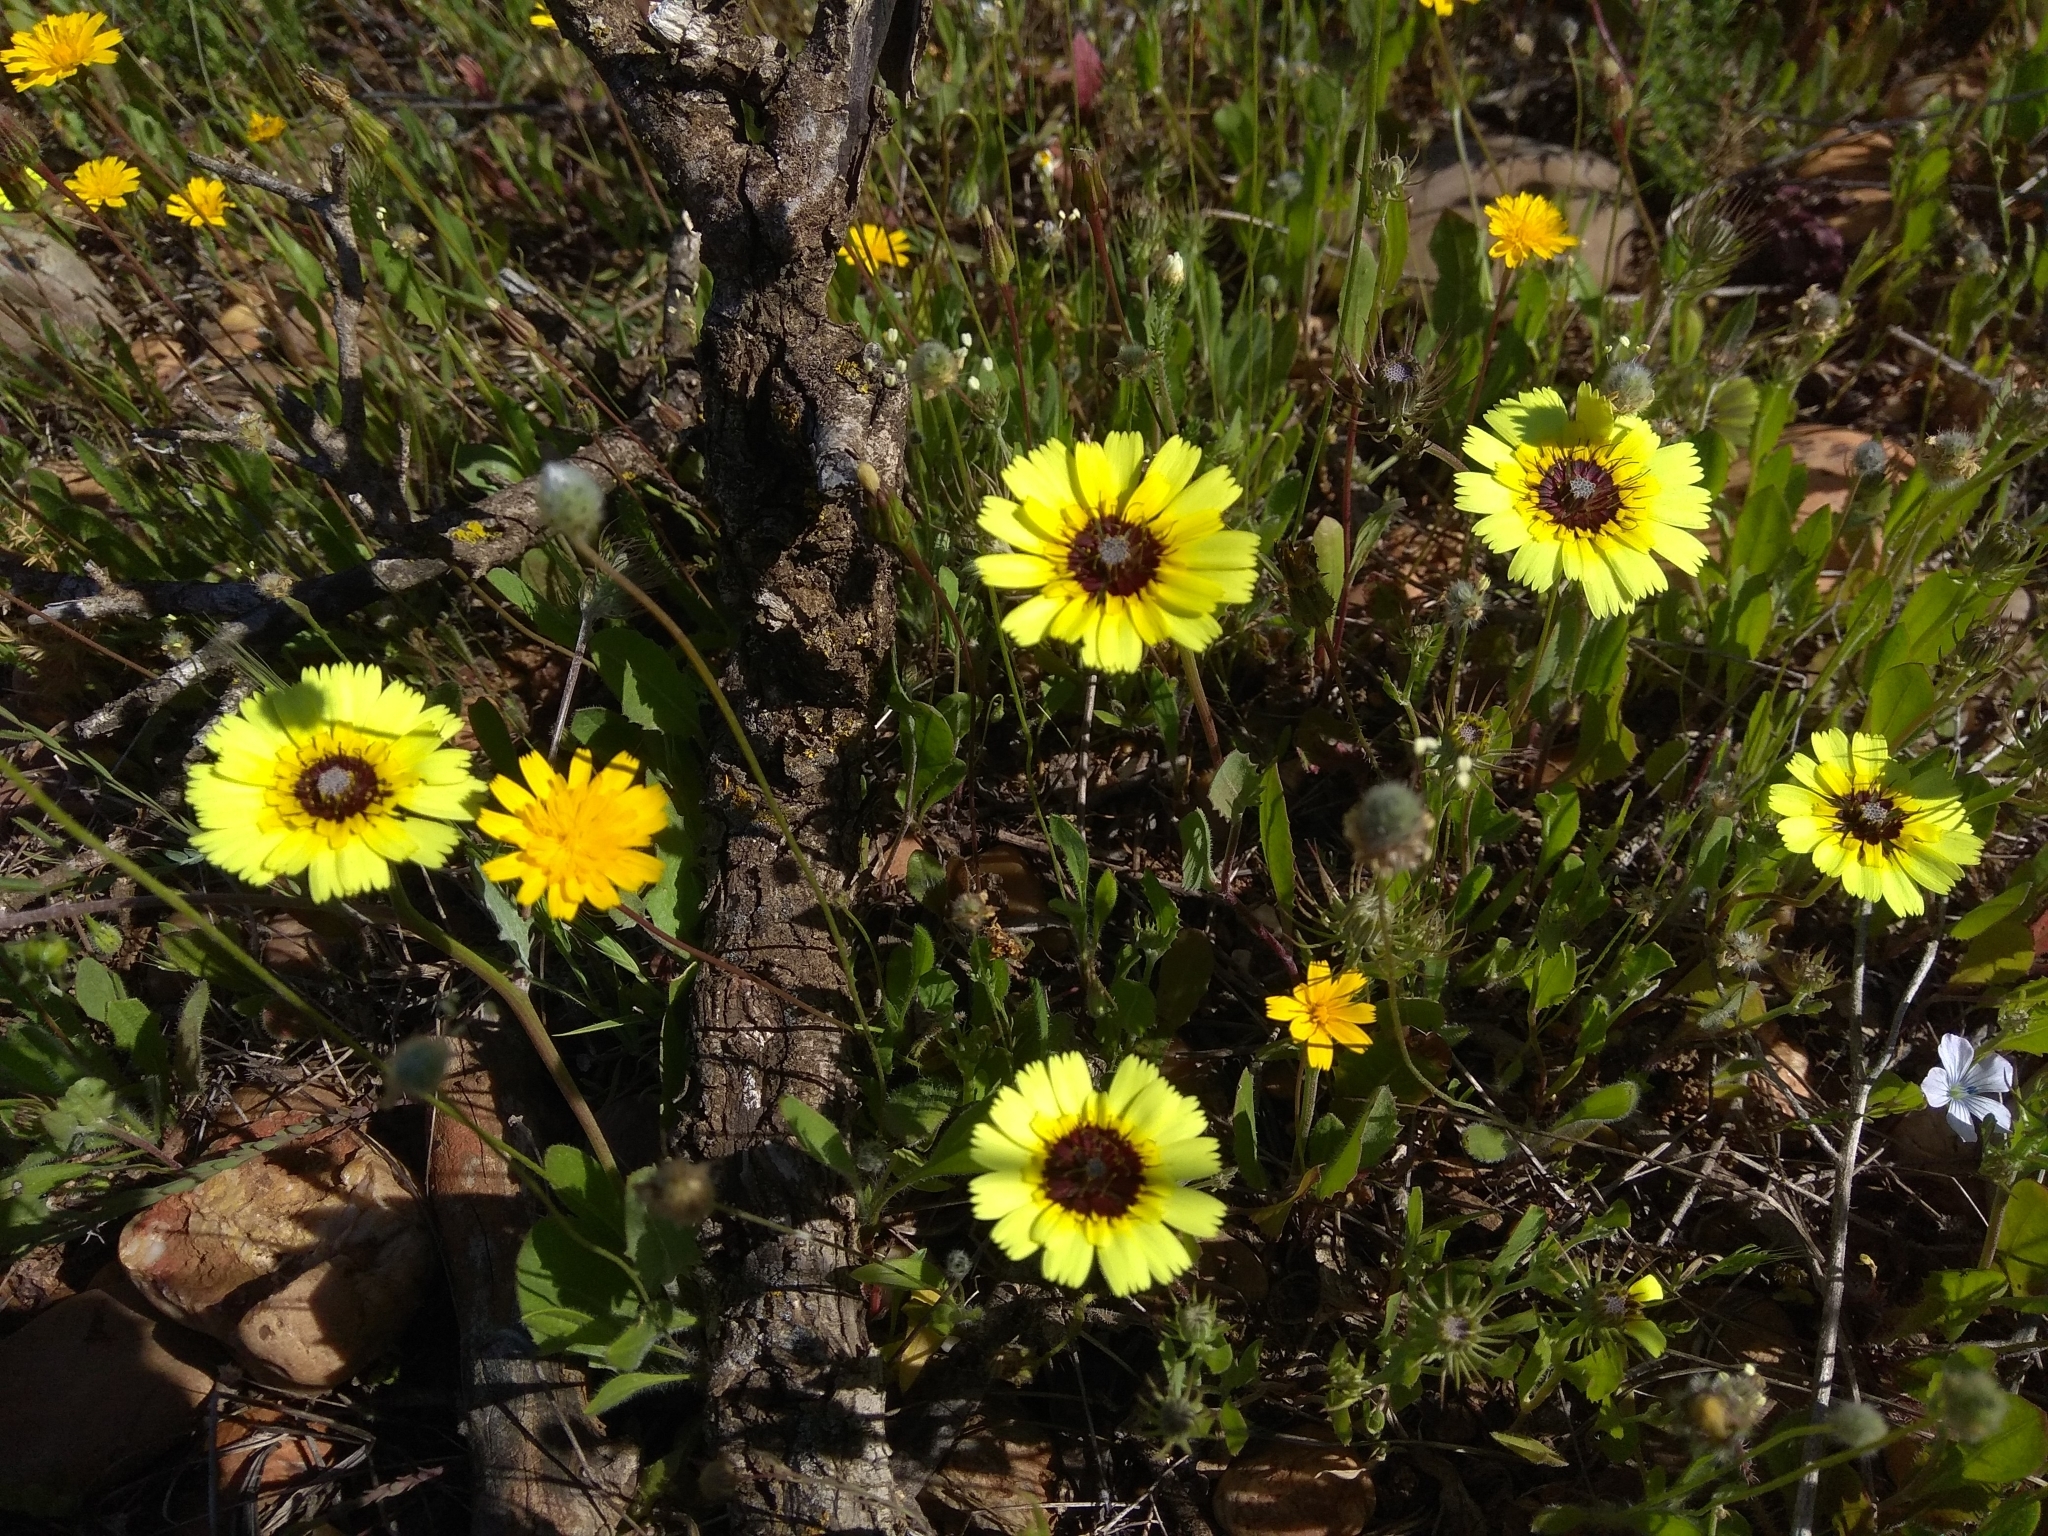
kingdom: Plantae
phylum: Tracheophyta
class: Magnoliopsida
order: Asterales
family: Asteraceae
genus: Tolpis
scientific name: Tolpis barbata
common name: Yellow hawkweed
